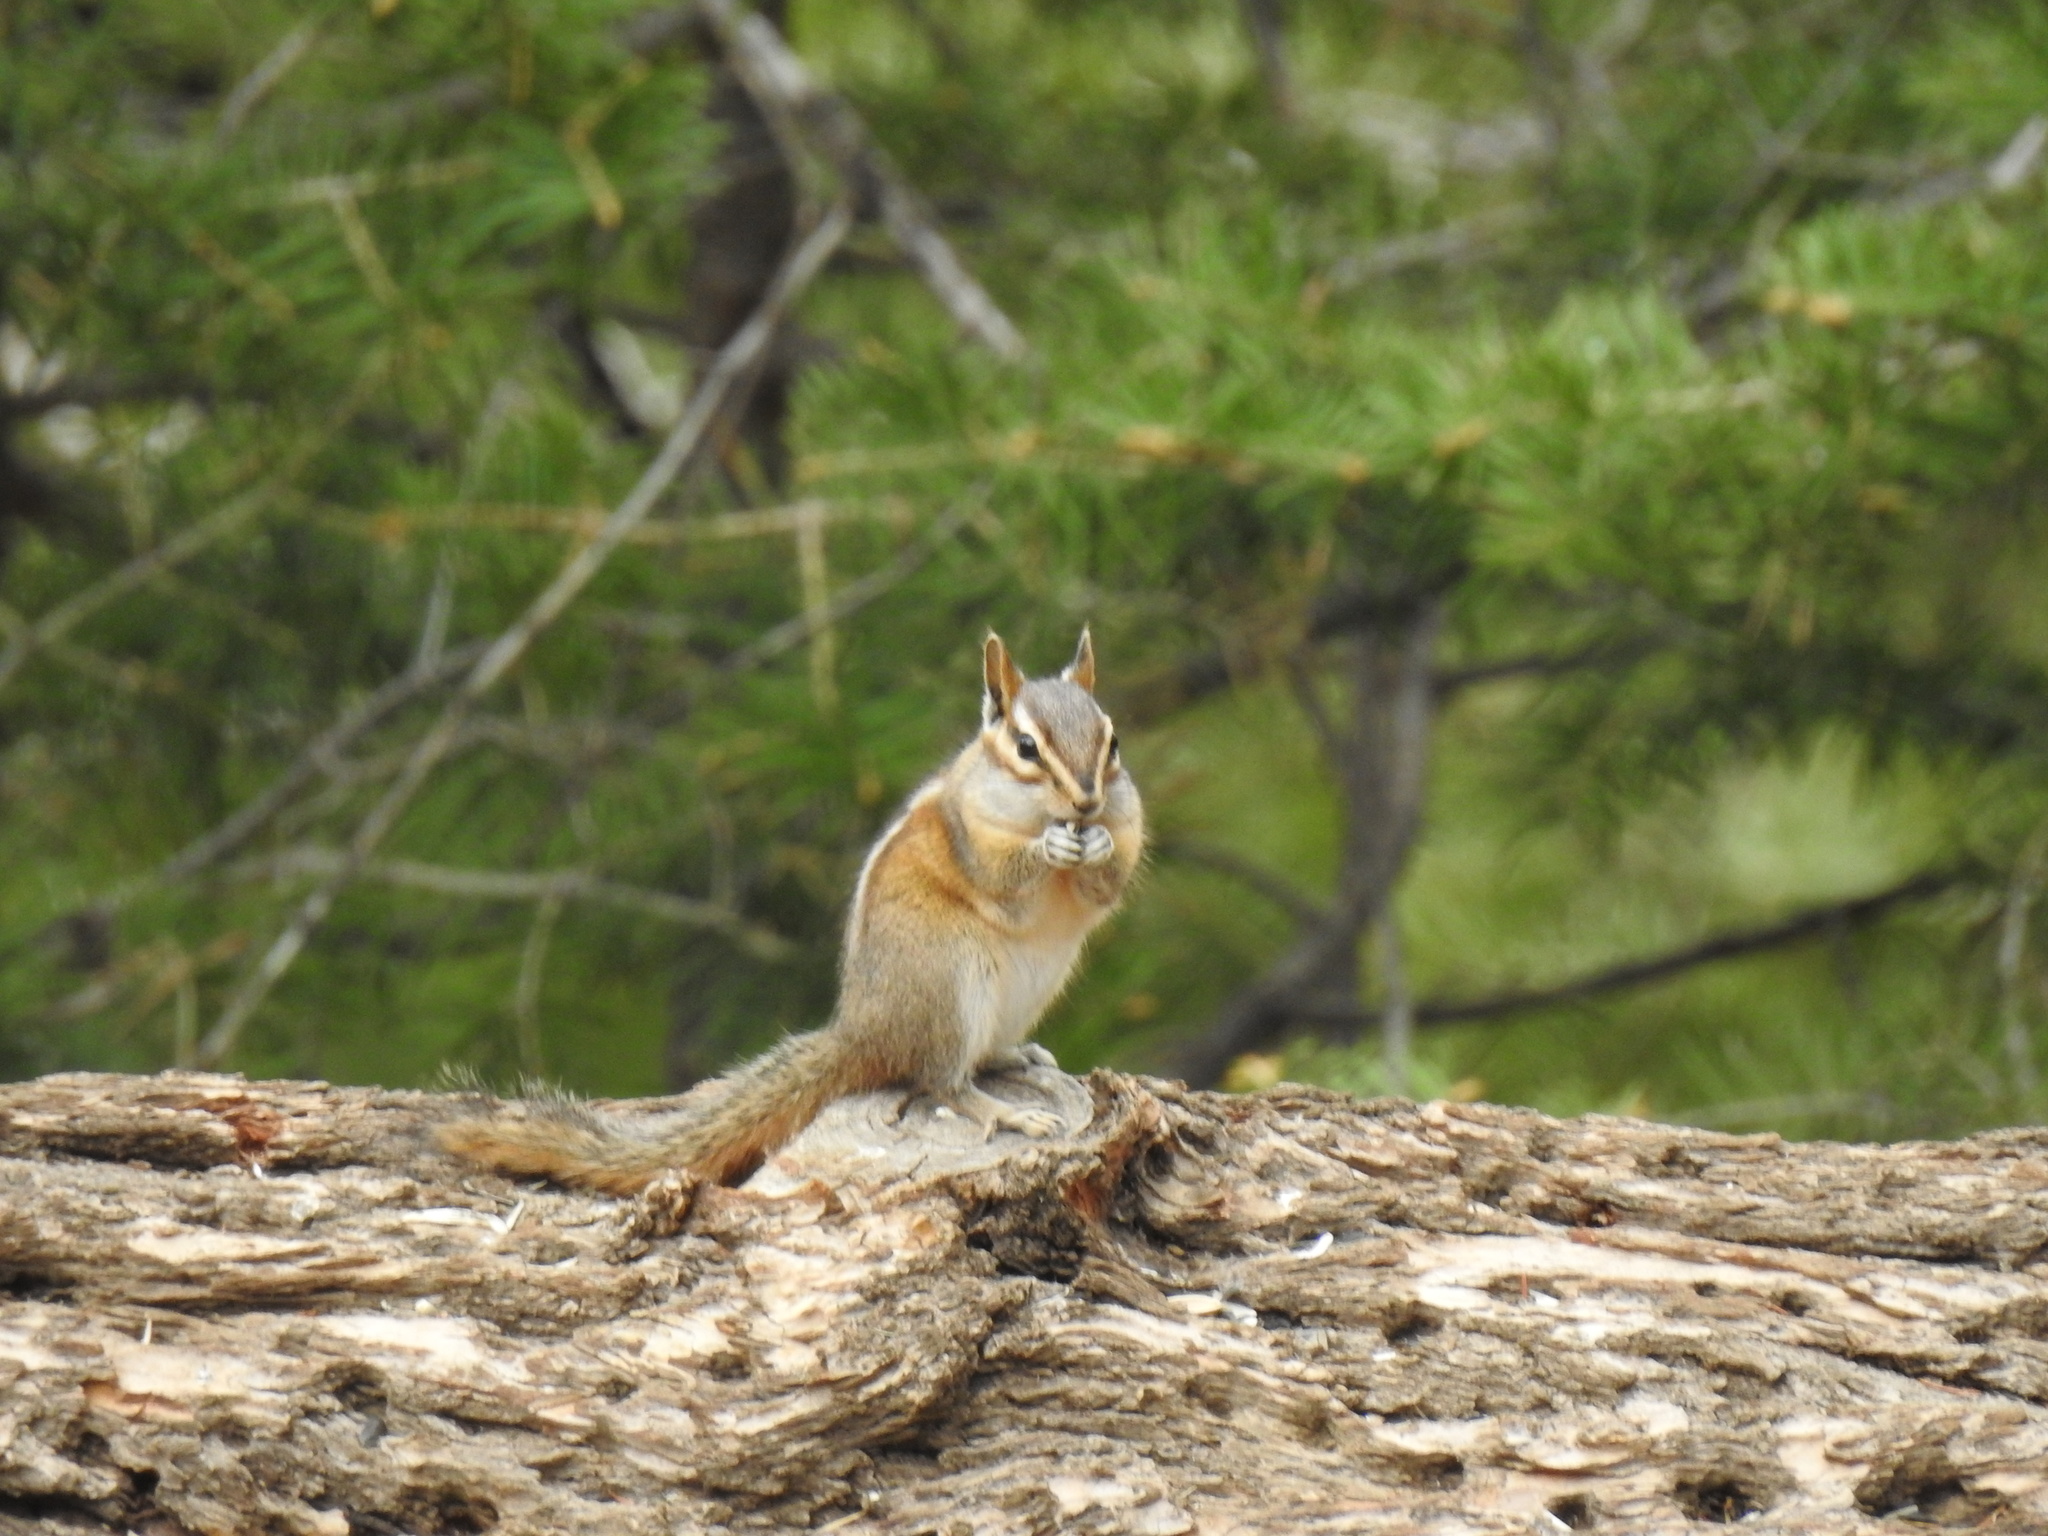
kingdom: Animalia
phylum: Chordata
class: Mammalia
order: Rodentia
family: Sciuridae
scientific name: Sciuridae
